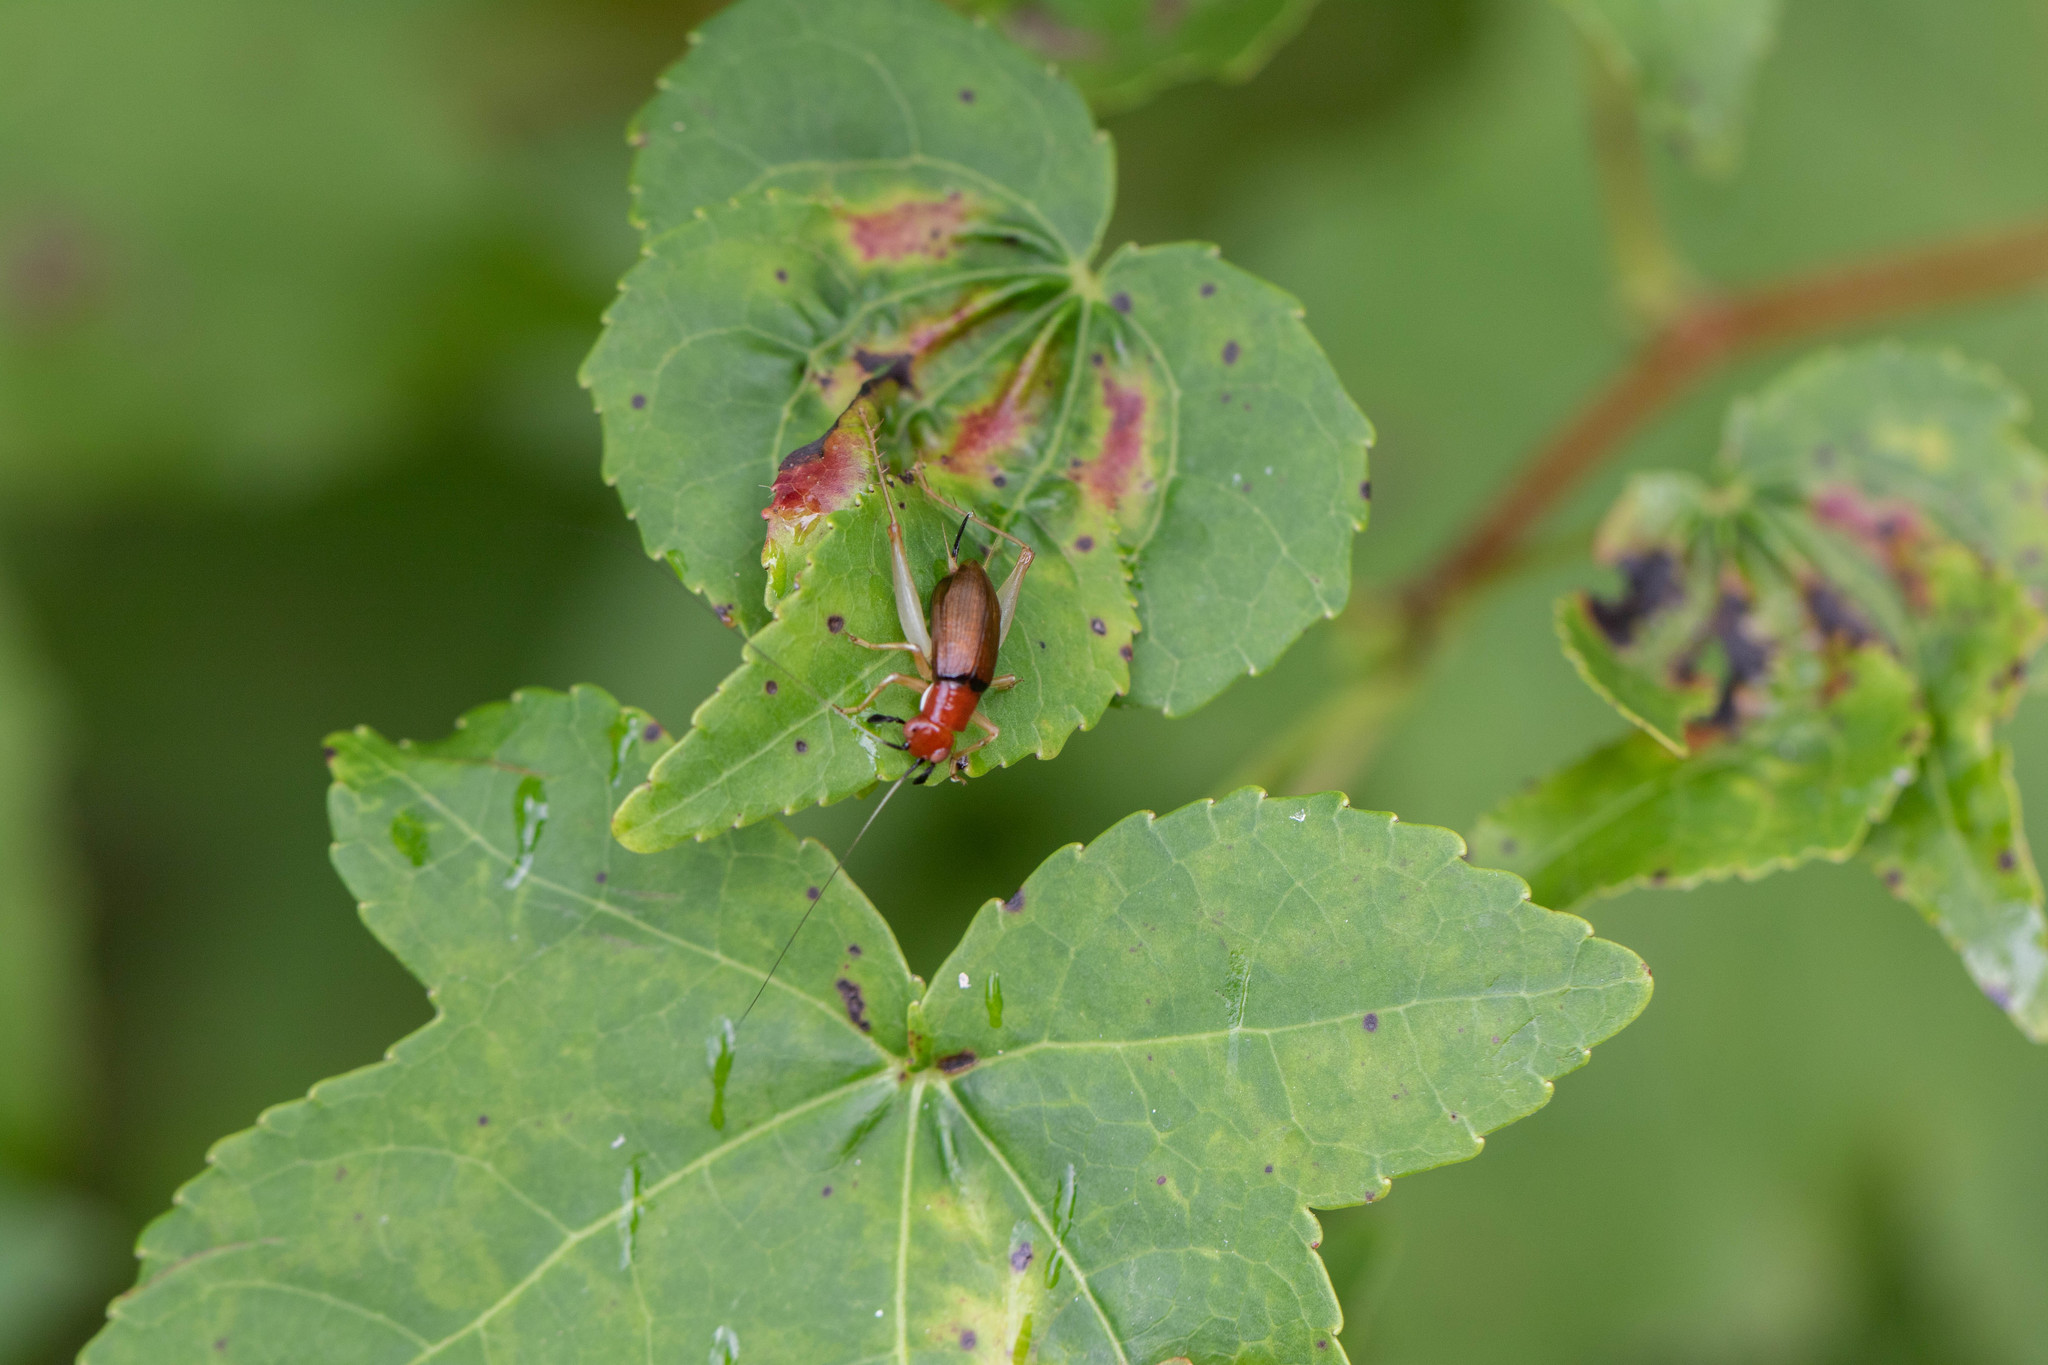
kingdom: Animalia
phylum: Arthropoda
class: Insecta
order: Orthoptera
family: Trigonidiidae
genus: Phyllopalpus
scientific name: Phyllopalpus pulchellus
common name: Handsome trig
